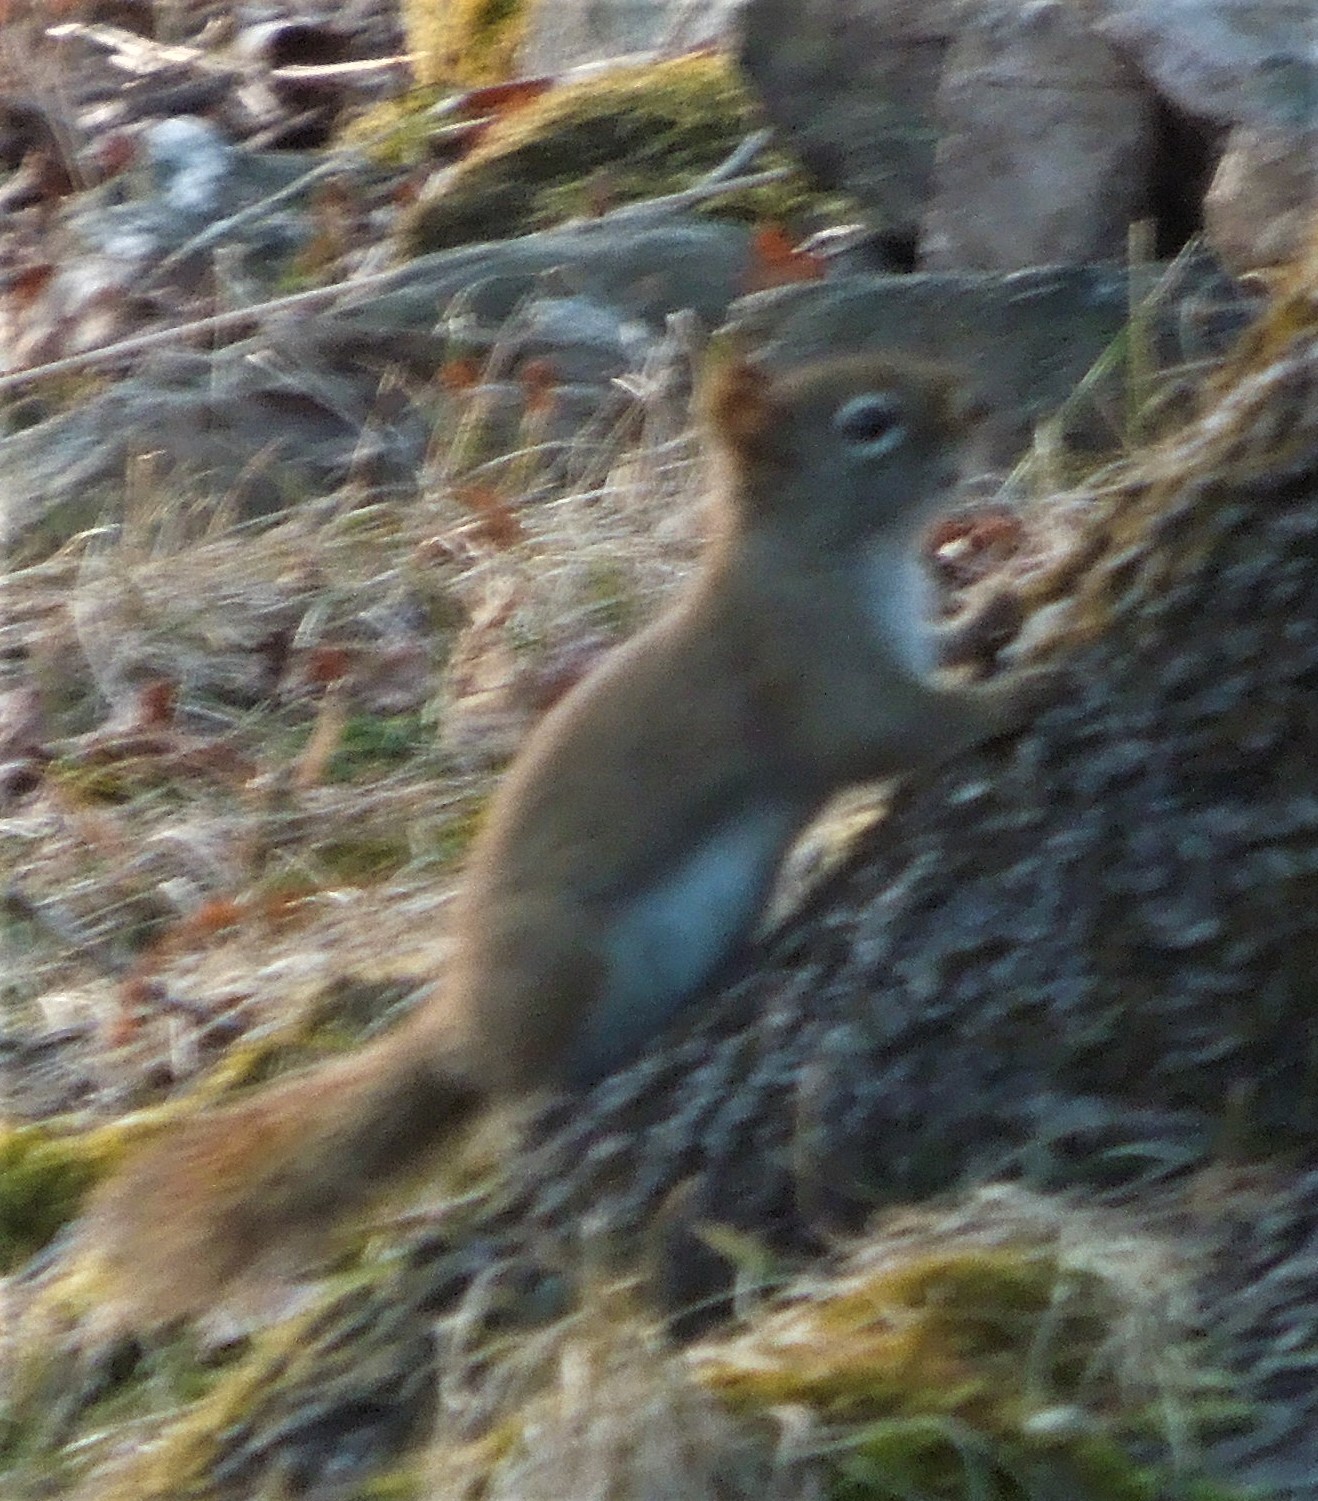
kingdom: Animalia
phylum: Chordata
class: Mammalia
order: Rodentia
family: Sciuridae
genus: Tamiasciurus
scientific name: Tamiasciurus hudsonicus
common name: Red squirrel
